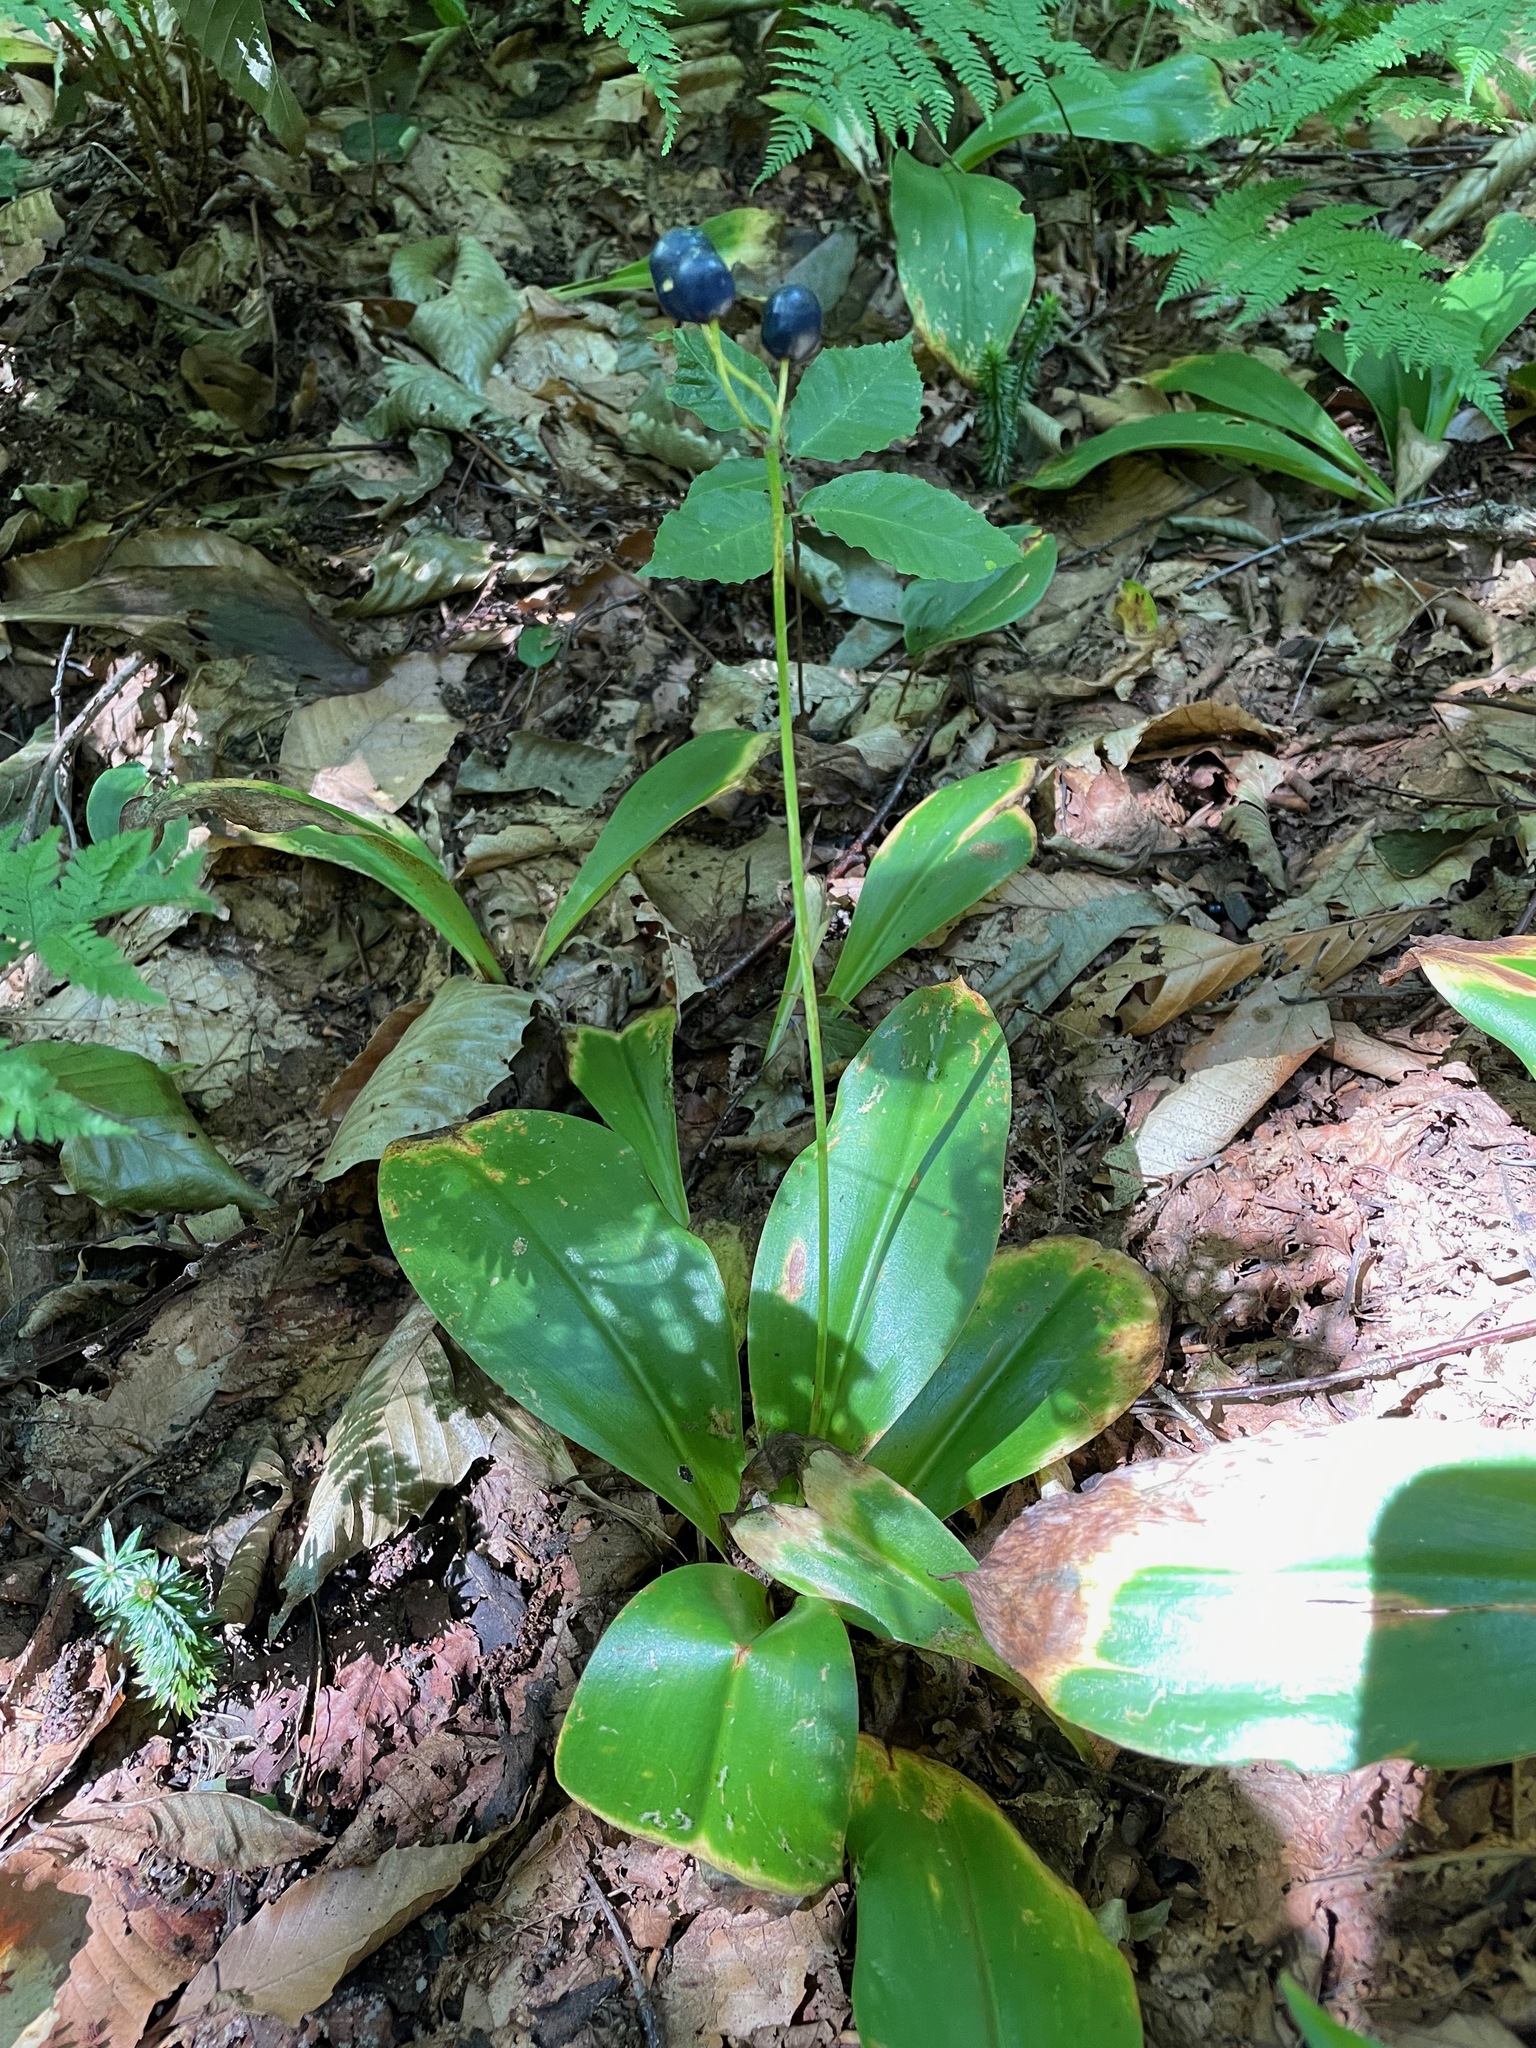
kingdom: Plantae
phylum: Tracheophyta
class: Liliopsida
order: Liliales
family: Liliaceae
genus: Clintonia
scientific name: Clintonia borealis
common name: Yellow clintonia
